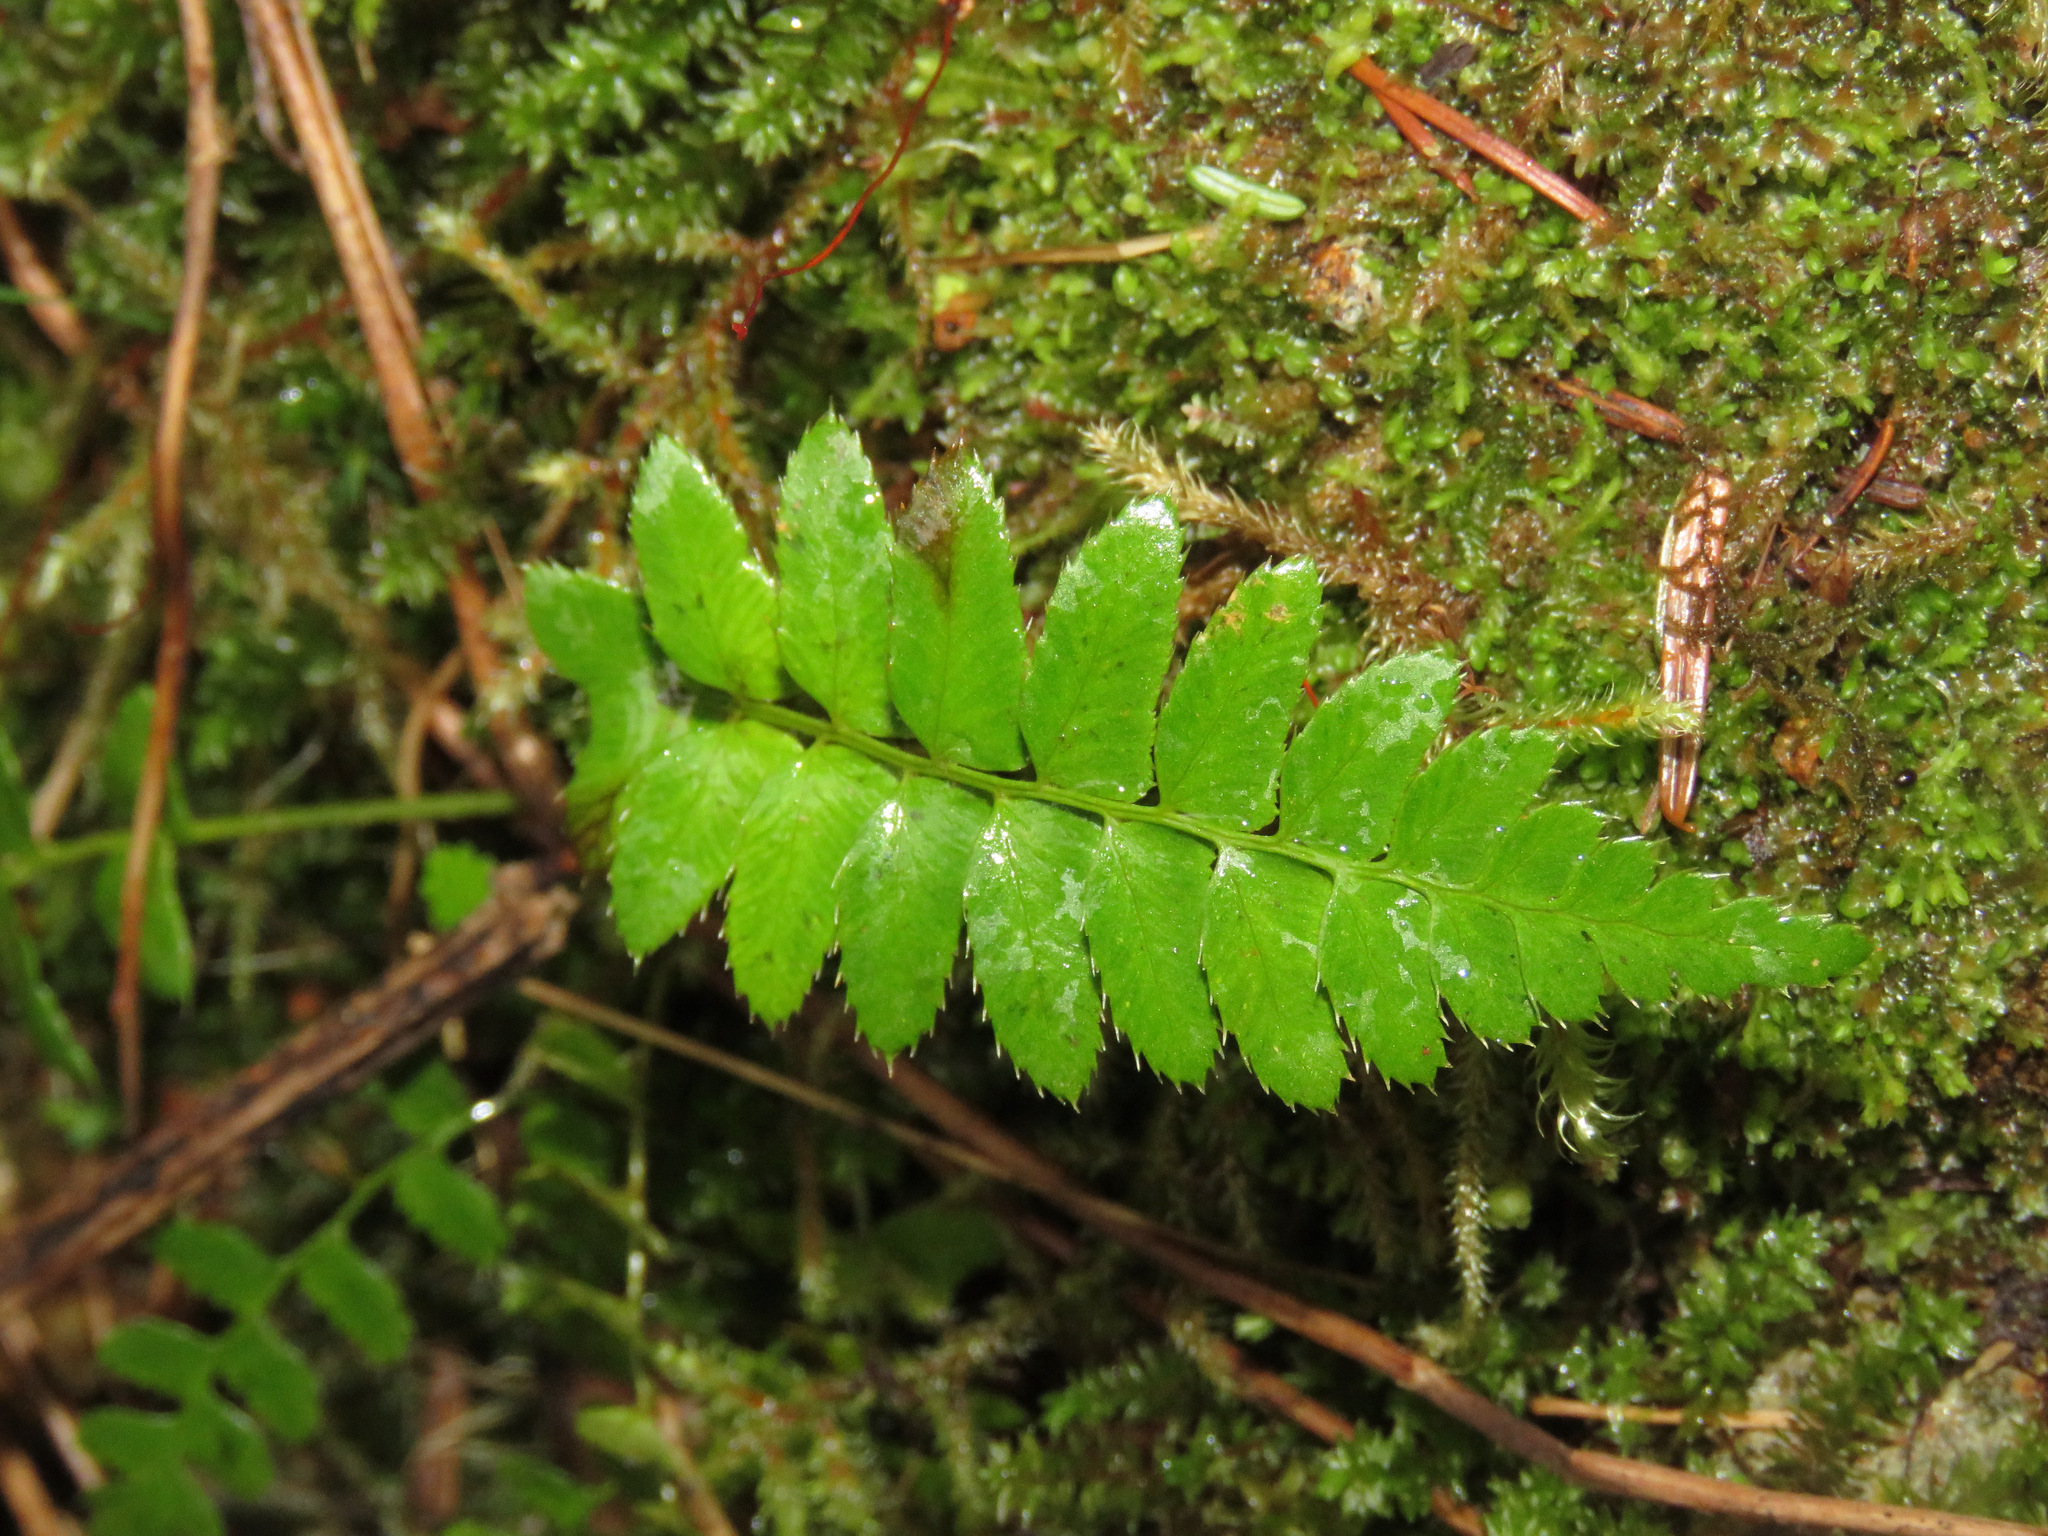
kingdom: Plantae
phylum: Tracheophyta
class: Polypodiopsida
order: Polypodiales
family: Dryopteridaceae
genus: Polystichum
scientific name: Polystichum munitum
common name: Western sword-fern
